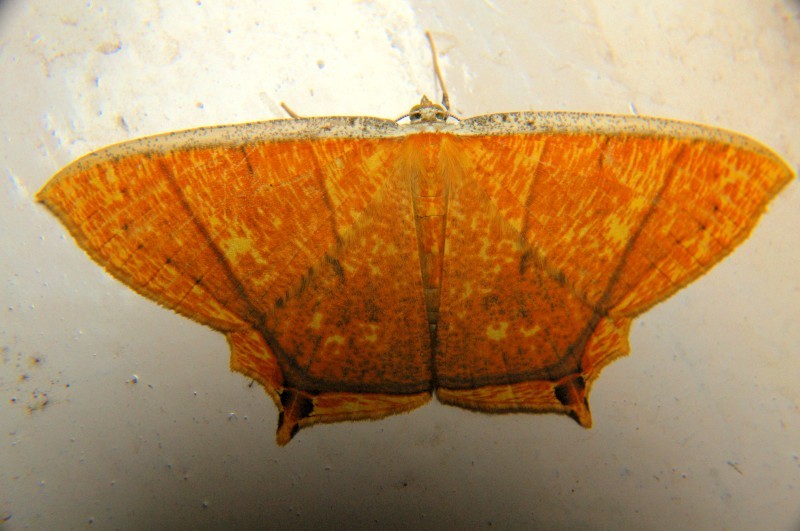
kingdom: Animalia
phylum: Arthropoda
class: Insecta
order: Lepidoptera
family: Geometridae
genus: Thinopteryx
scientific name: Thinopteryx crocoptera
